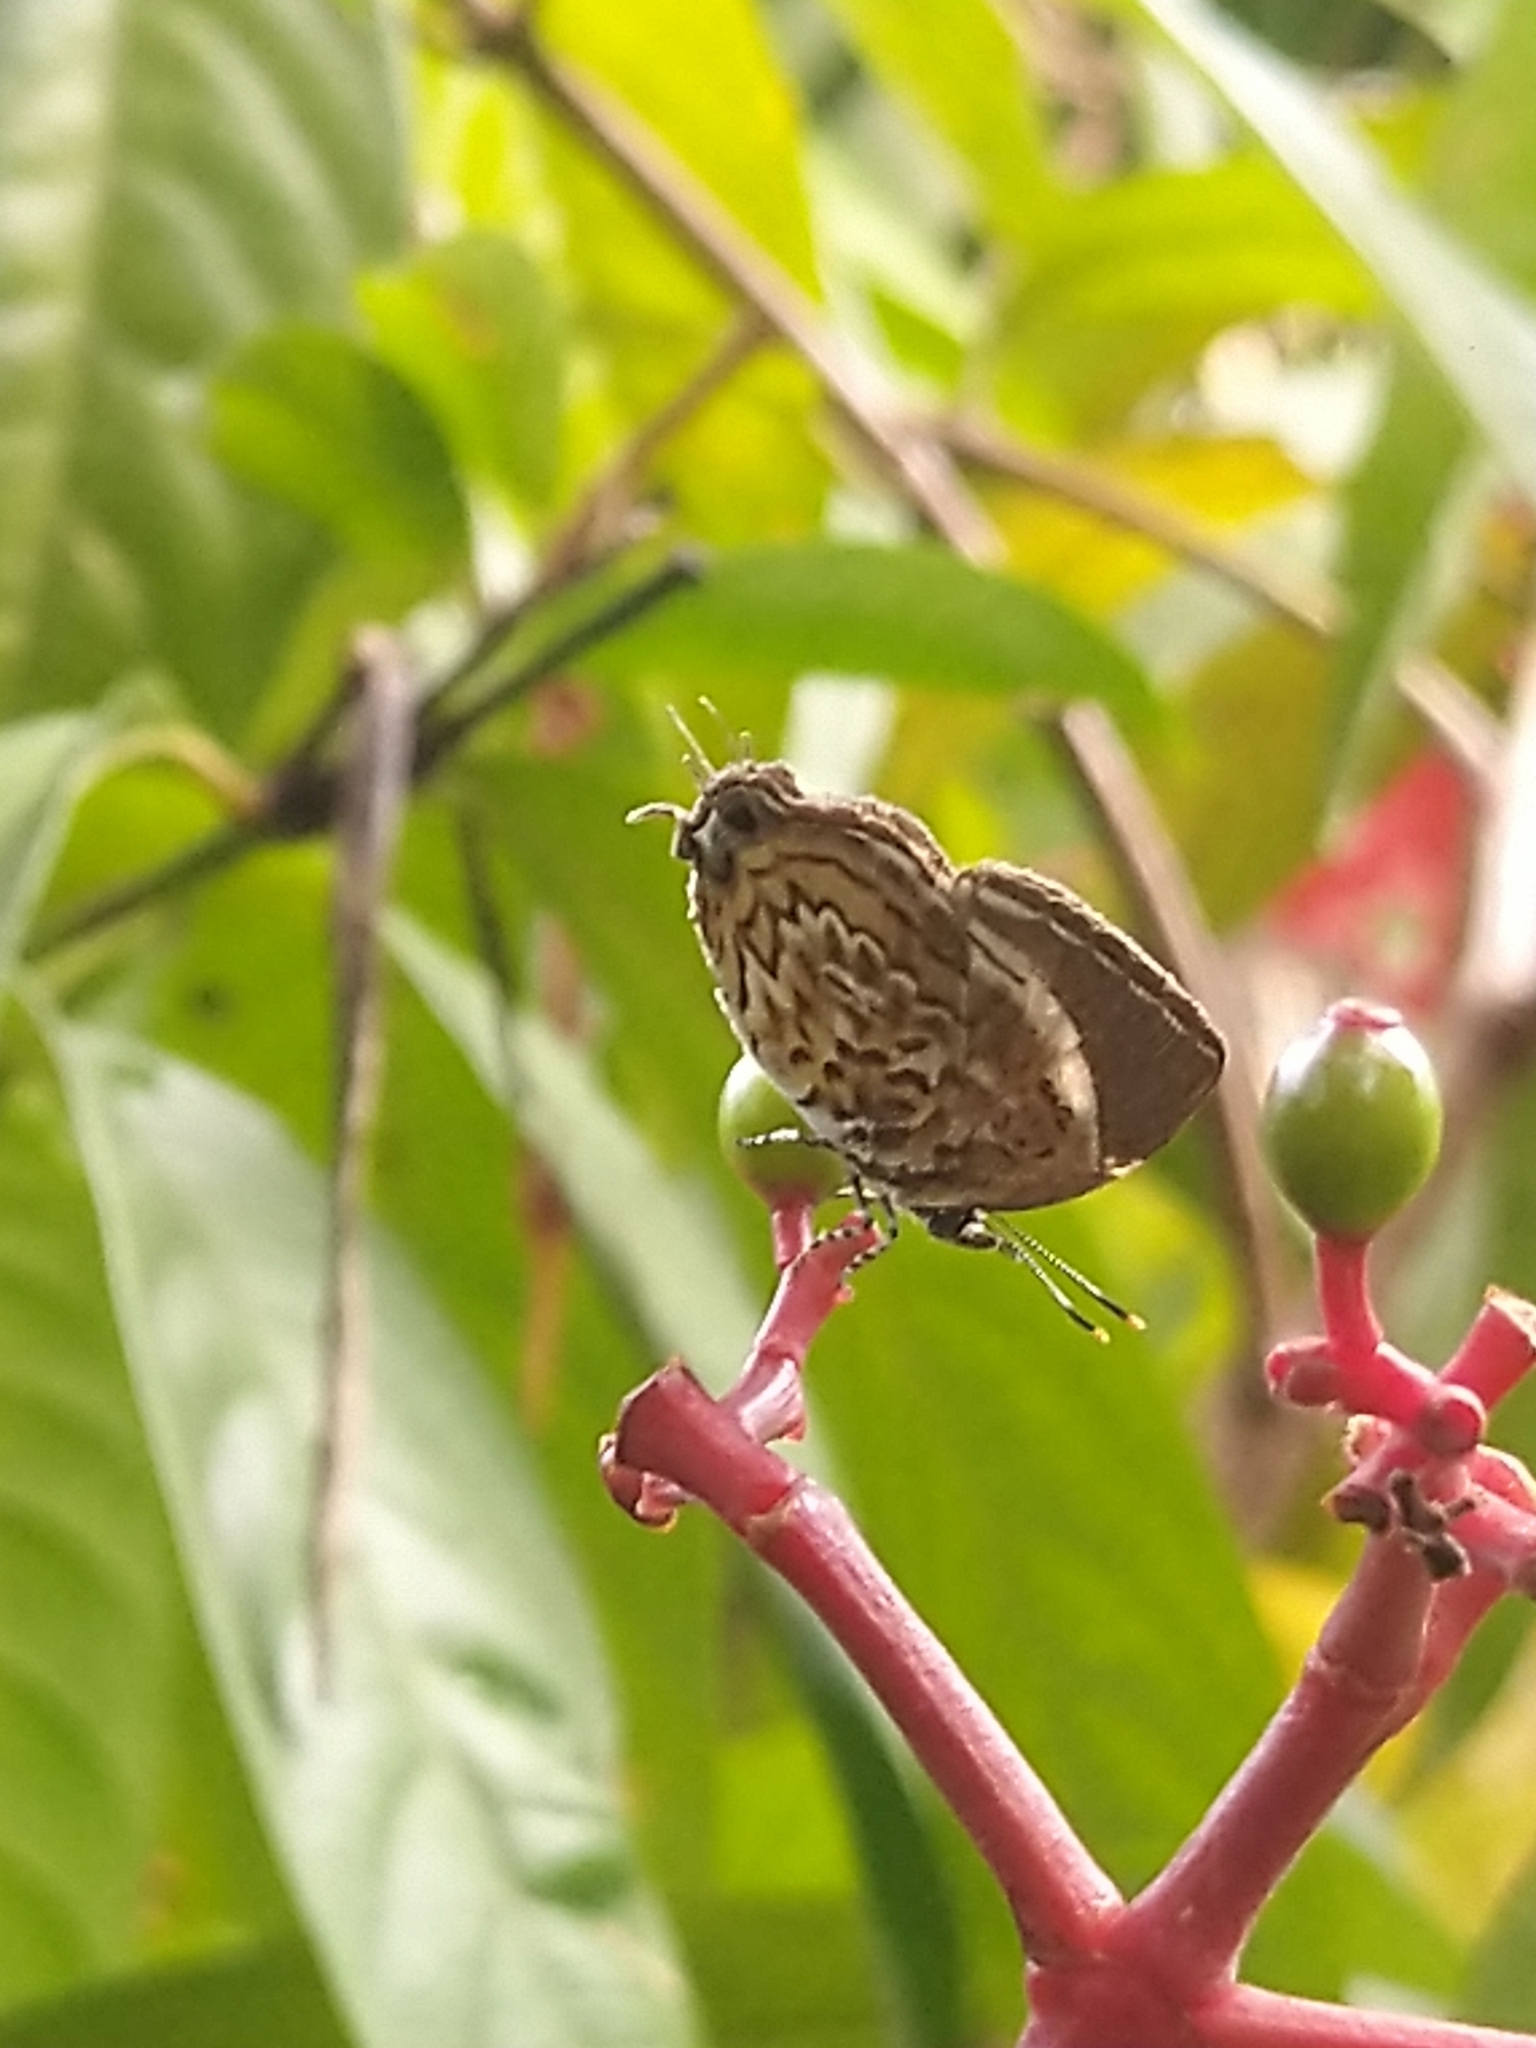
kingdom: Animalia
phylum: Arthropoda
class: Insecta
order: Lepidoptera
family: Lycaenidae
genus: Rathinda
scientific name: Rathinda amor
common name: Monkey puzzle
